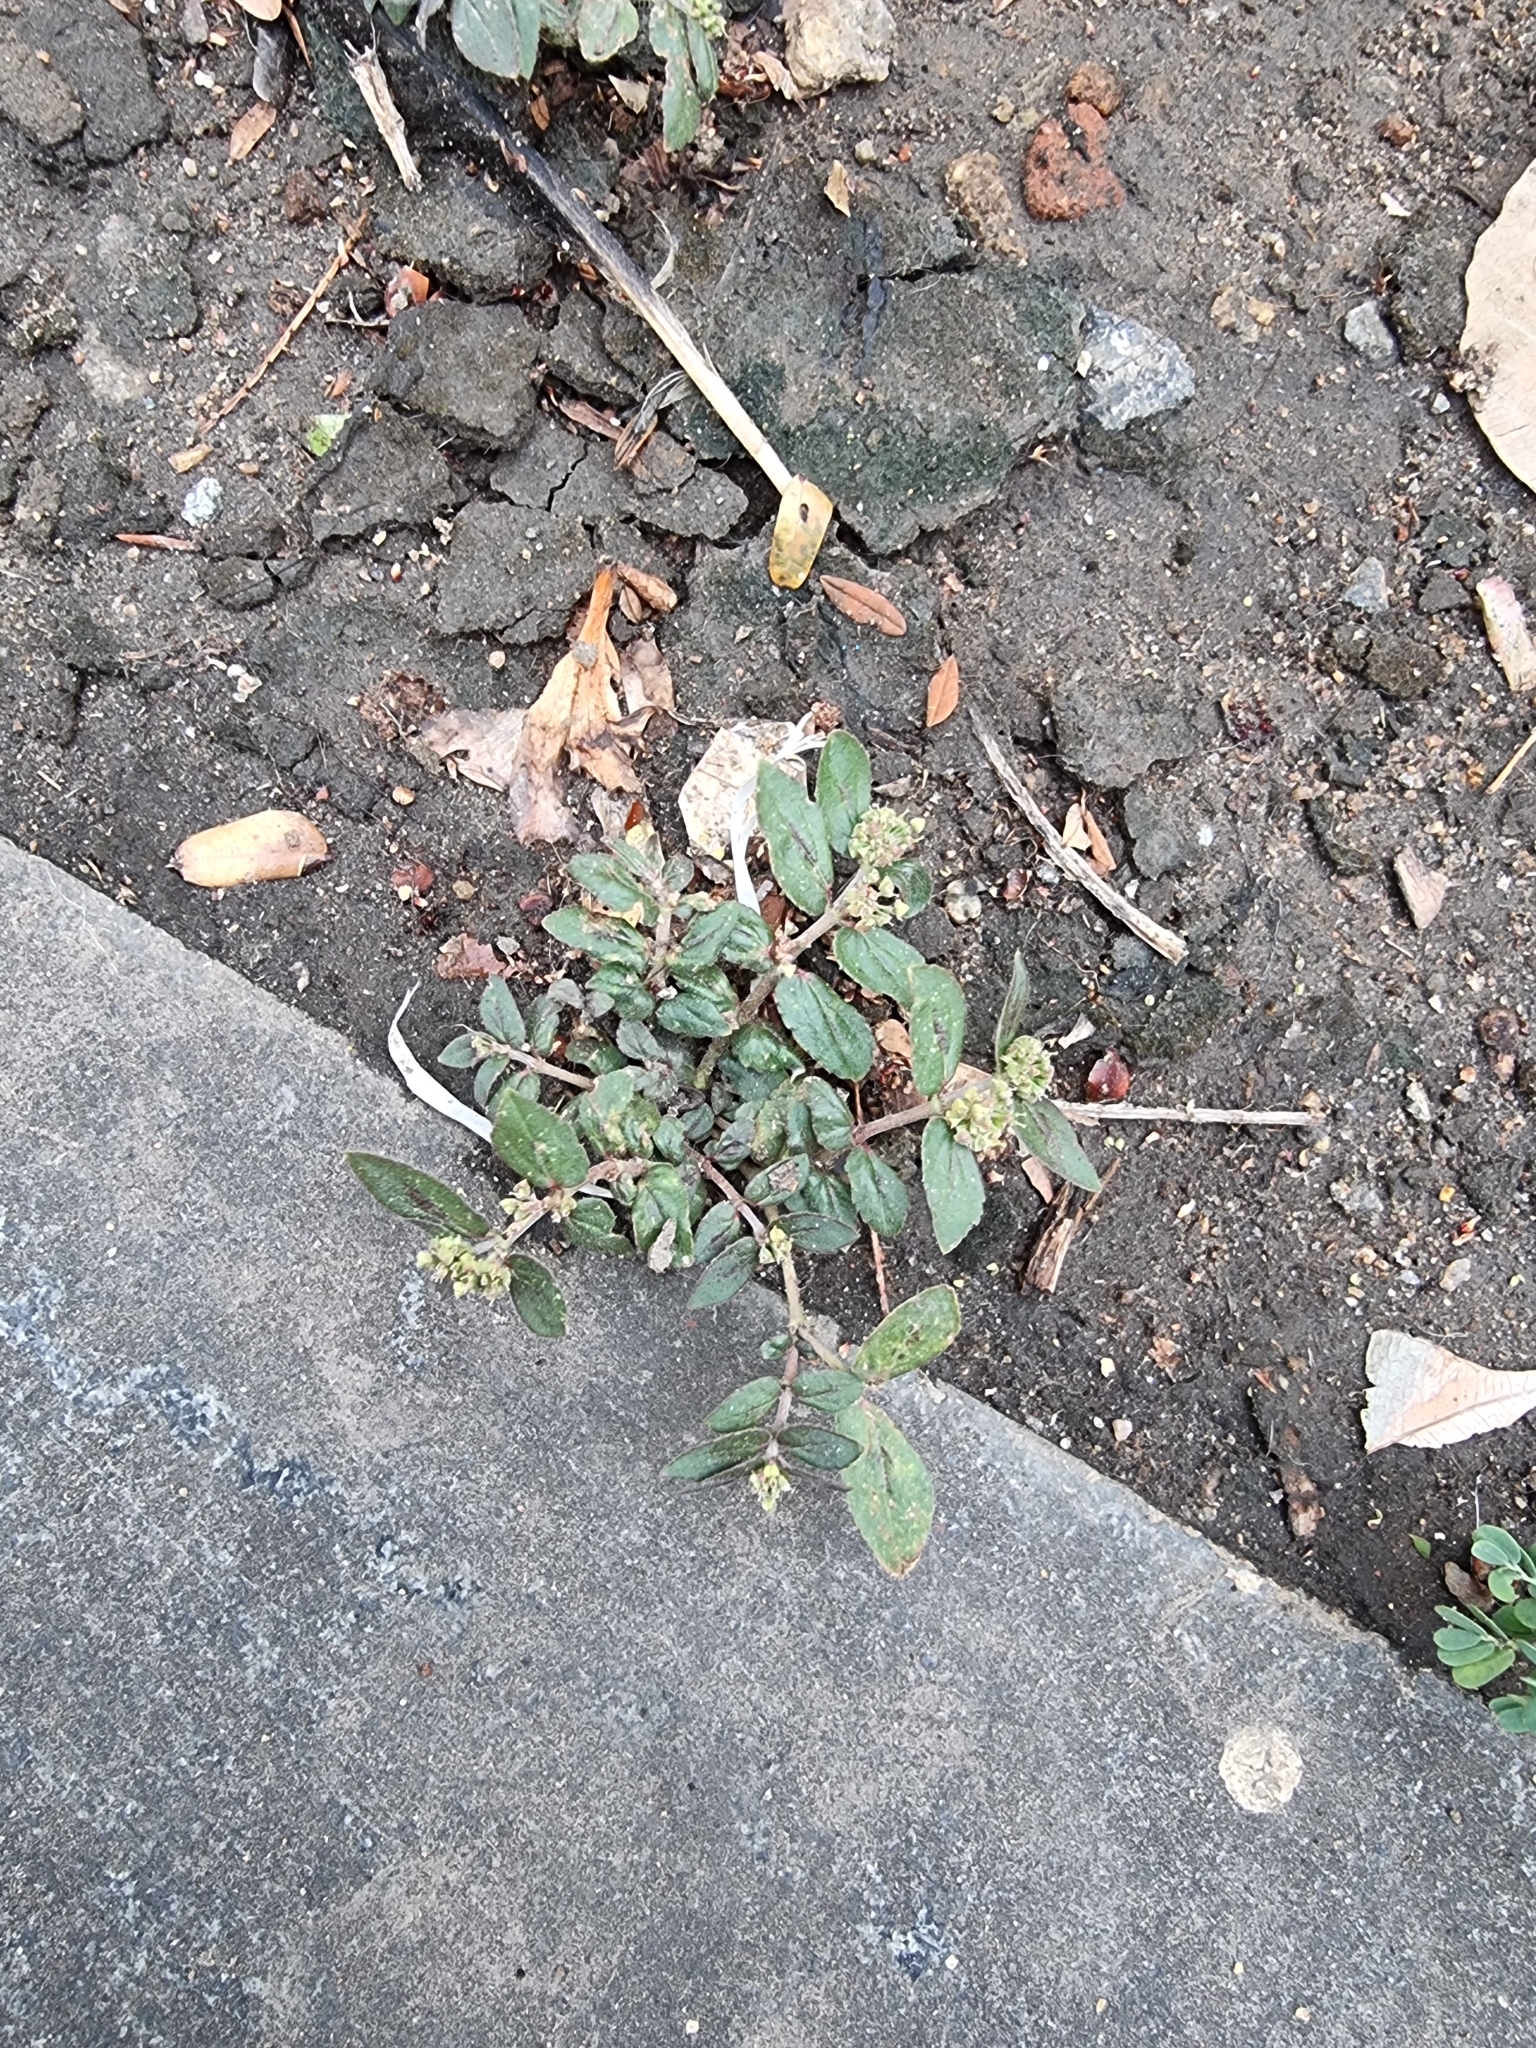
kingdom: Plantae
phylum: Tracheophyta
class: Magnoliopsida
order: Malpighiales
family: Euphorbiaceae
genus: Euphorbia
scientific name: Euphorbia hirta
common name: Pillpod sandmat
